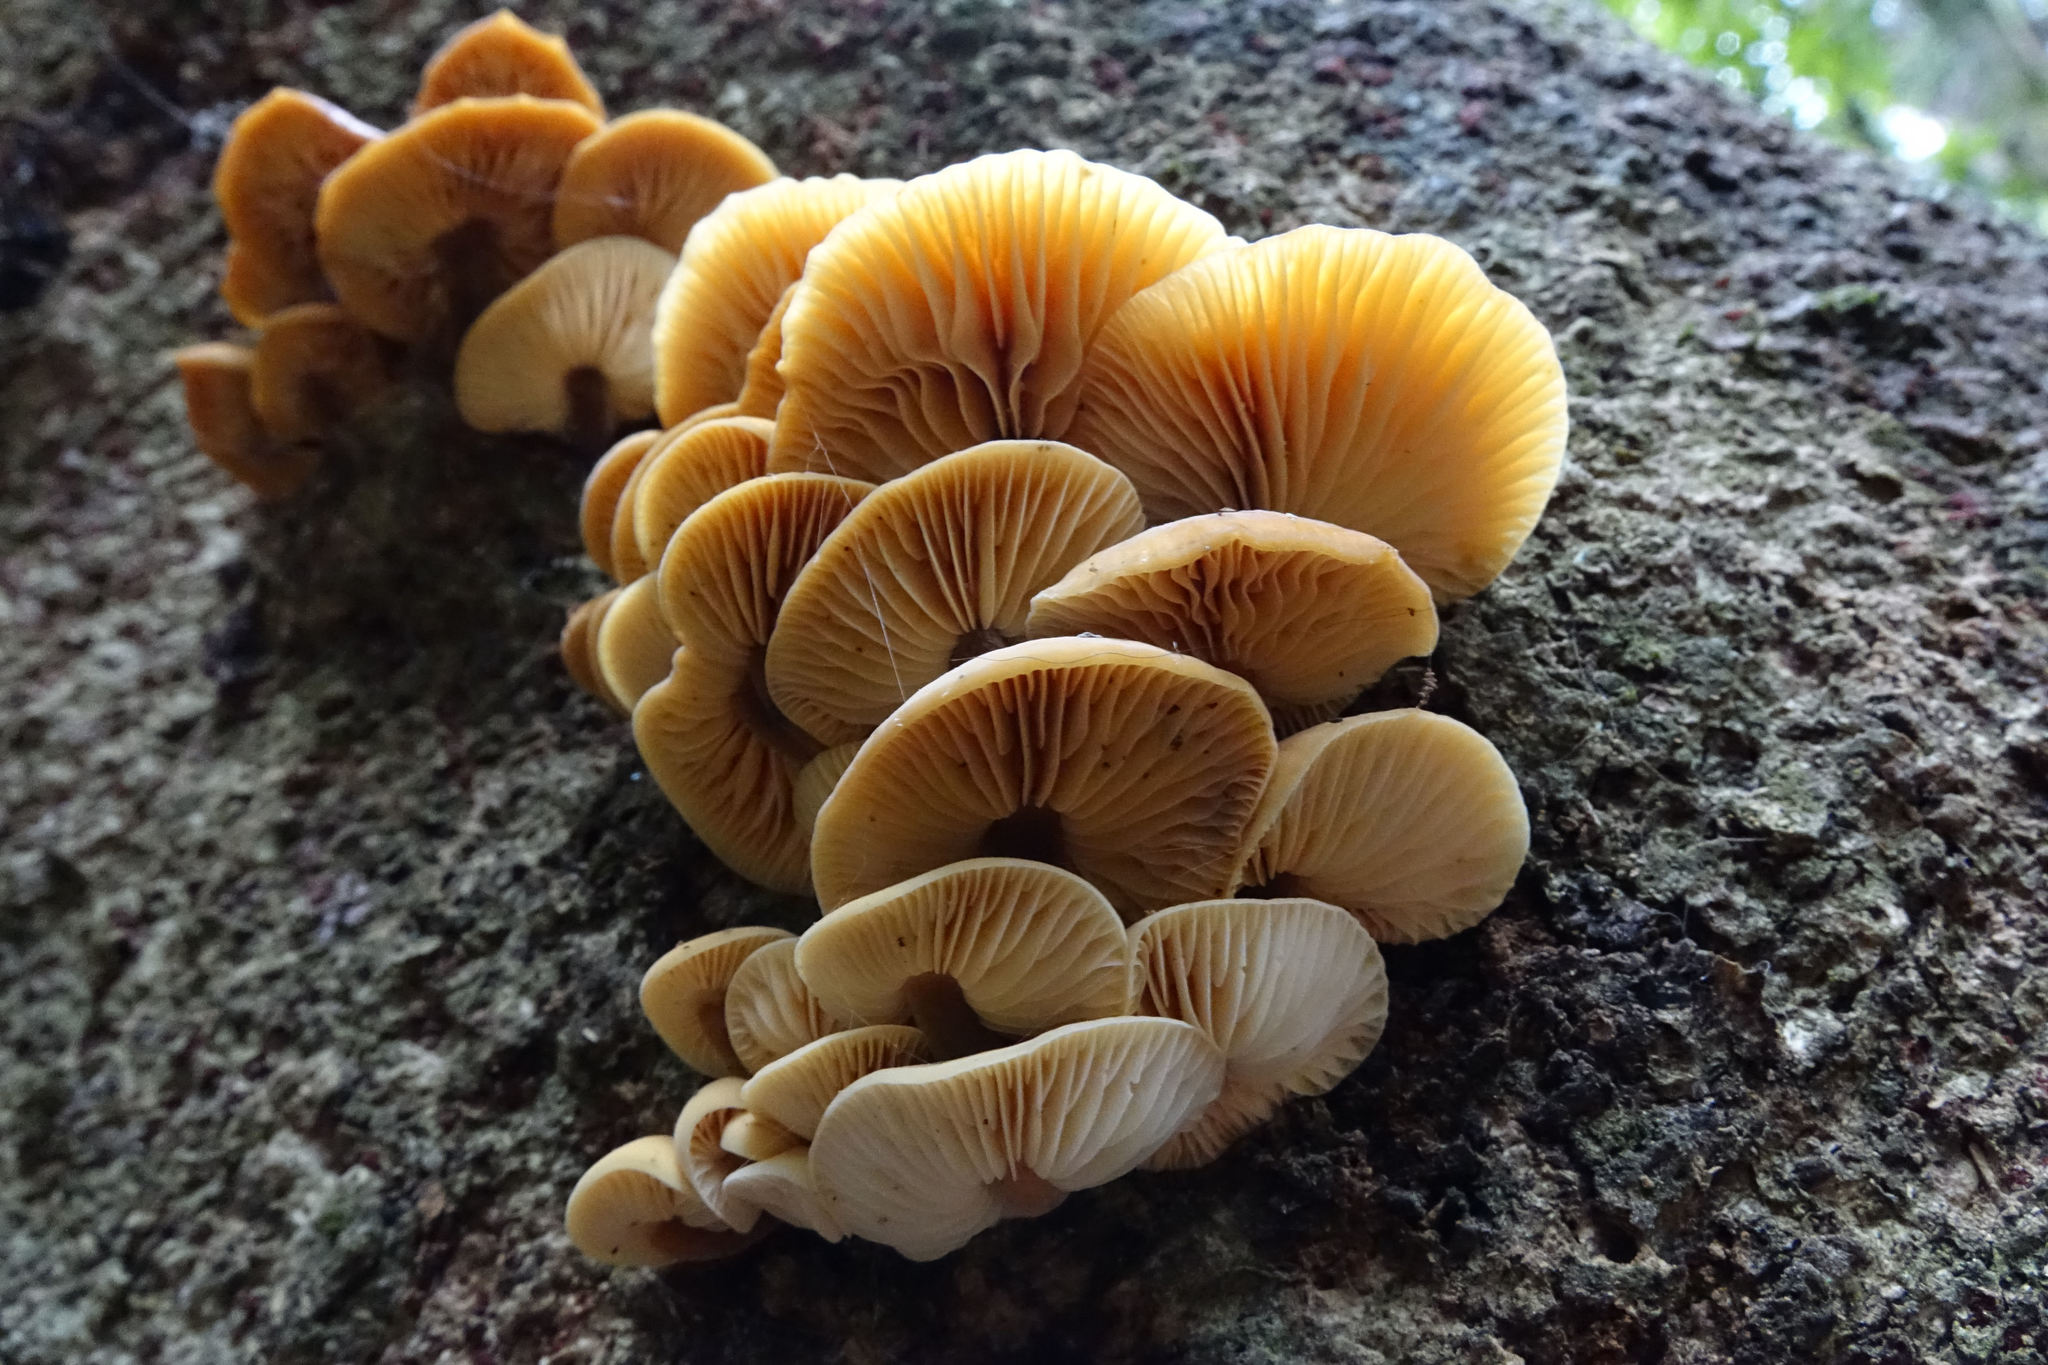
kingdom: Fungi
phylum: Basidiomycota
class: Agaricomycetes
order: Agaricales
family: Physalacriaceae
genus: Flammulina
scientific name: Flammulina velutipes
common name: Velvet shank
